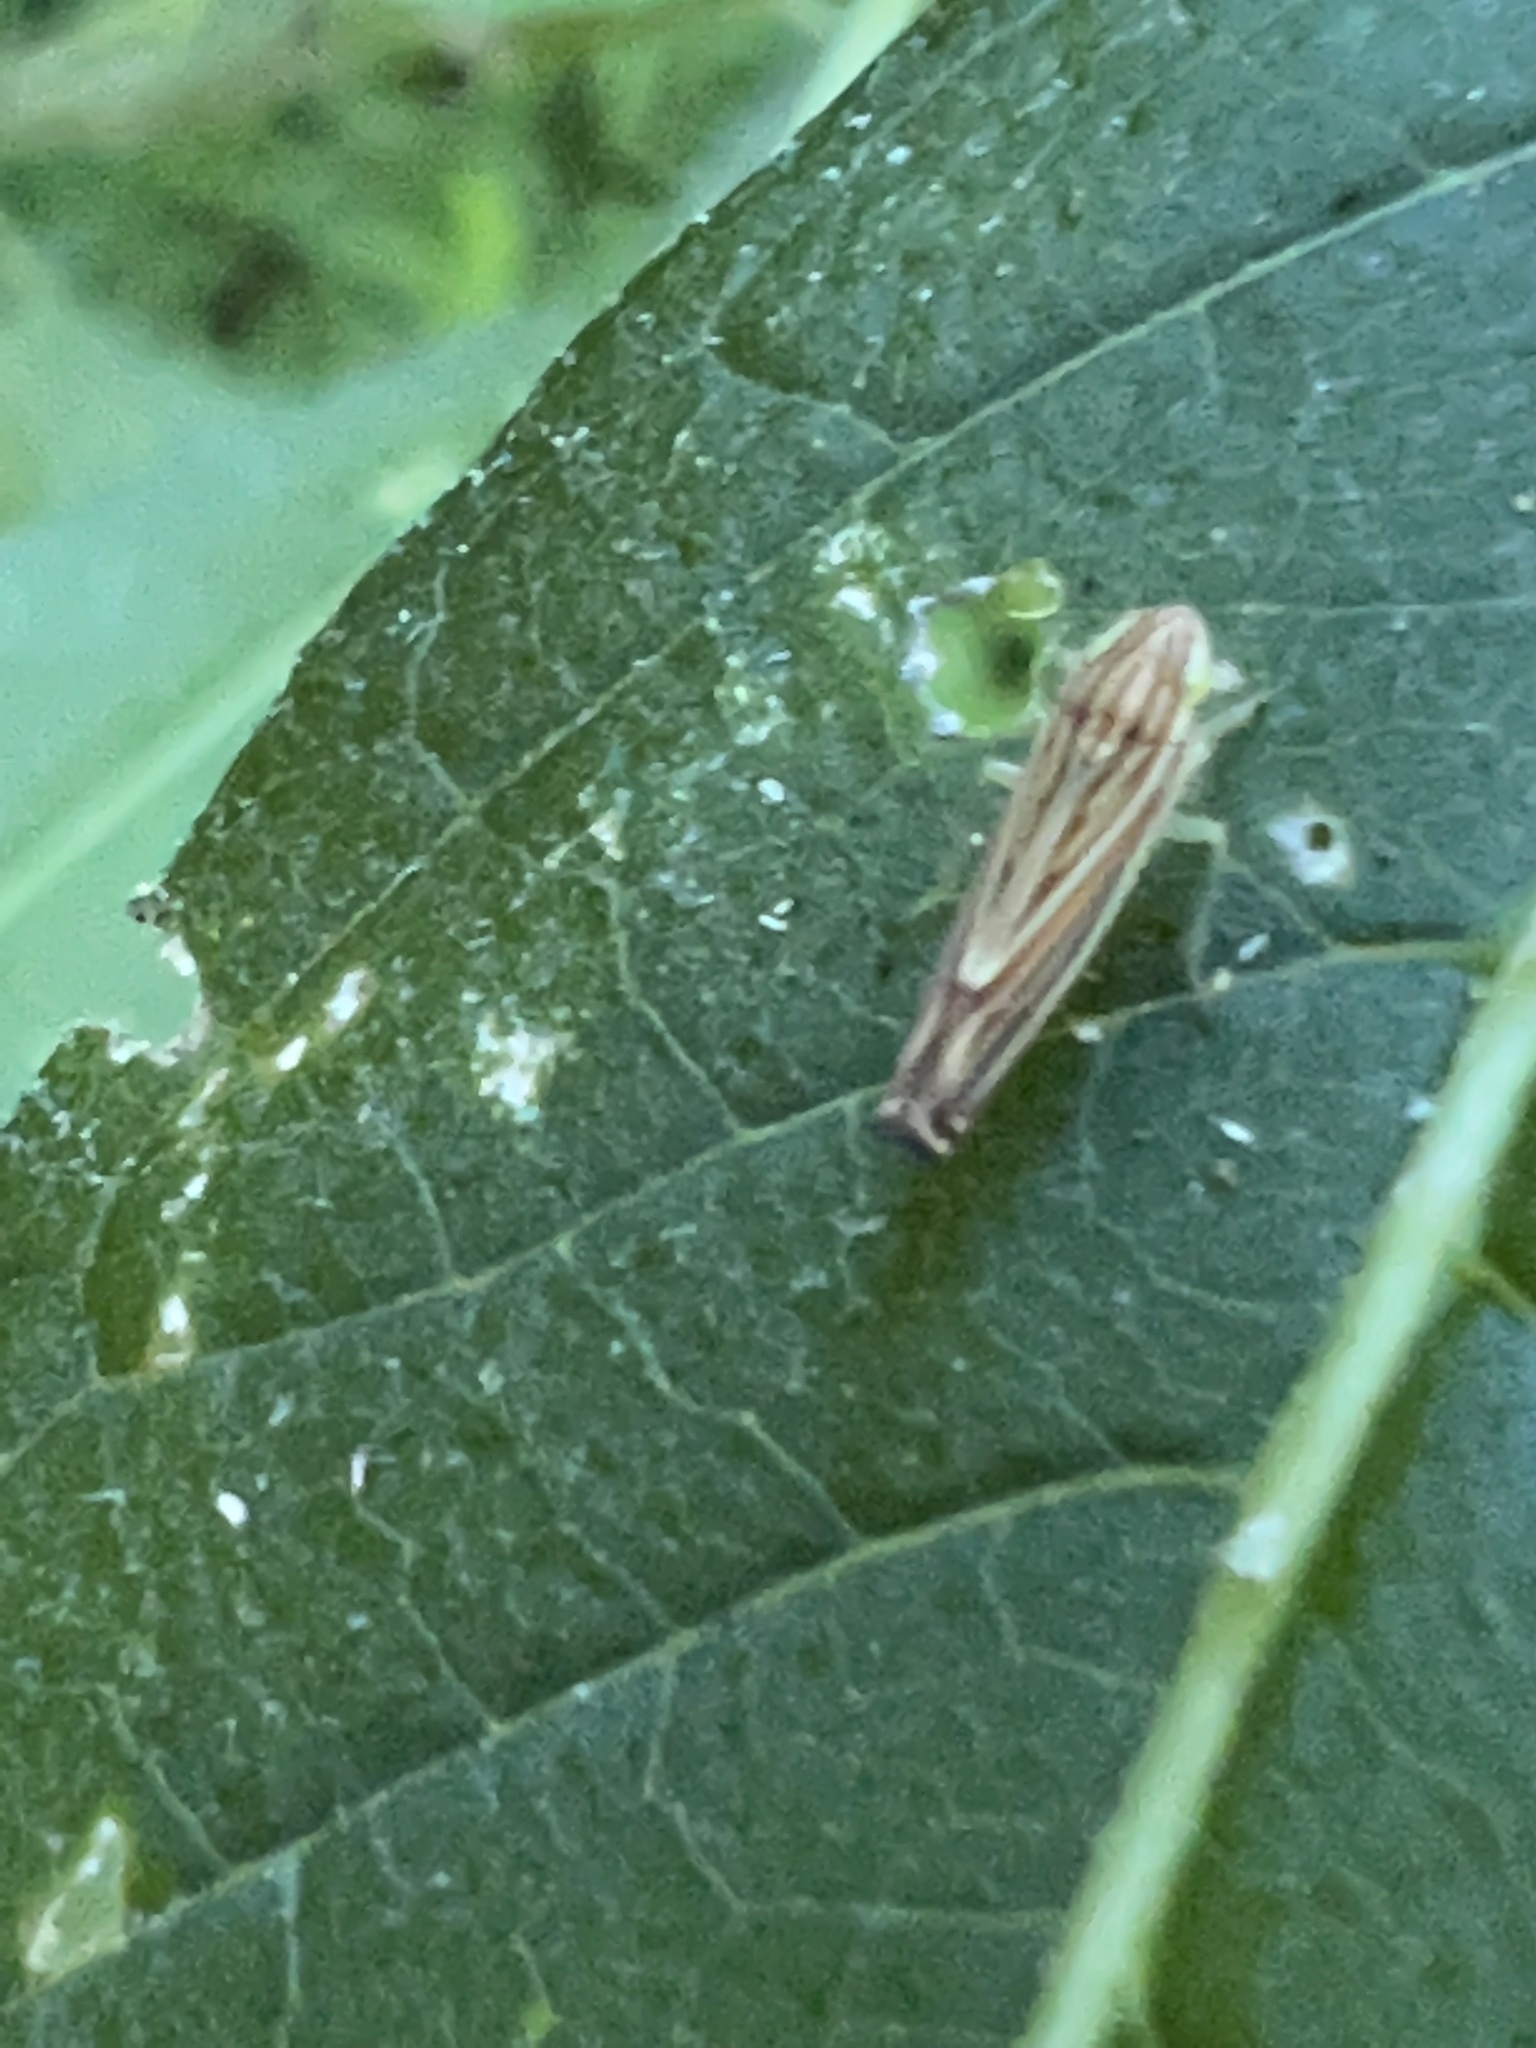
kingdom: Animalia
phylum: Arthropoda
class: Insecta
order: Hemiptera
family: Cicadellidae
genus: Sibovia
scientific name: Sibovia occatoria
